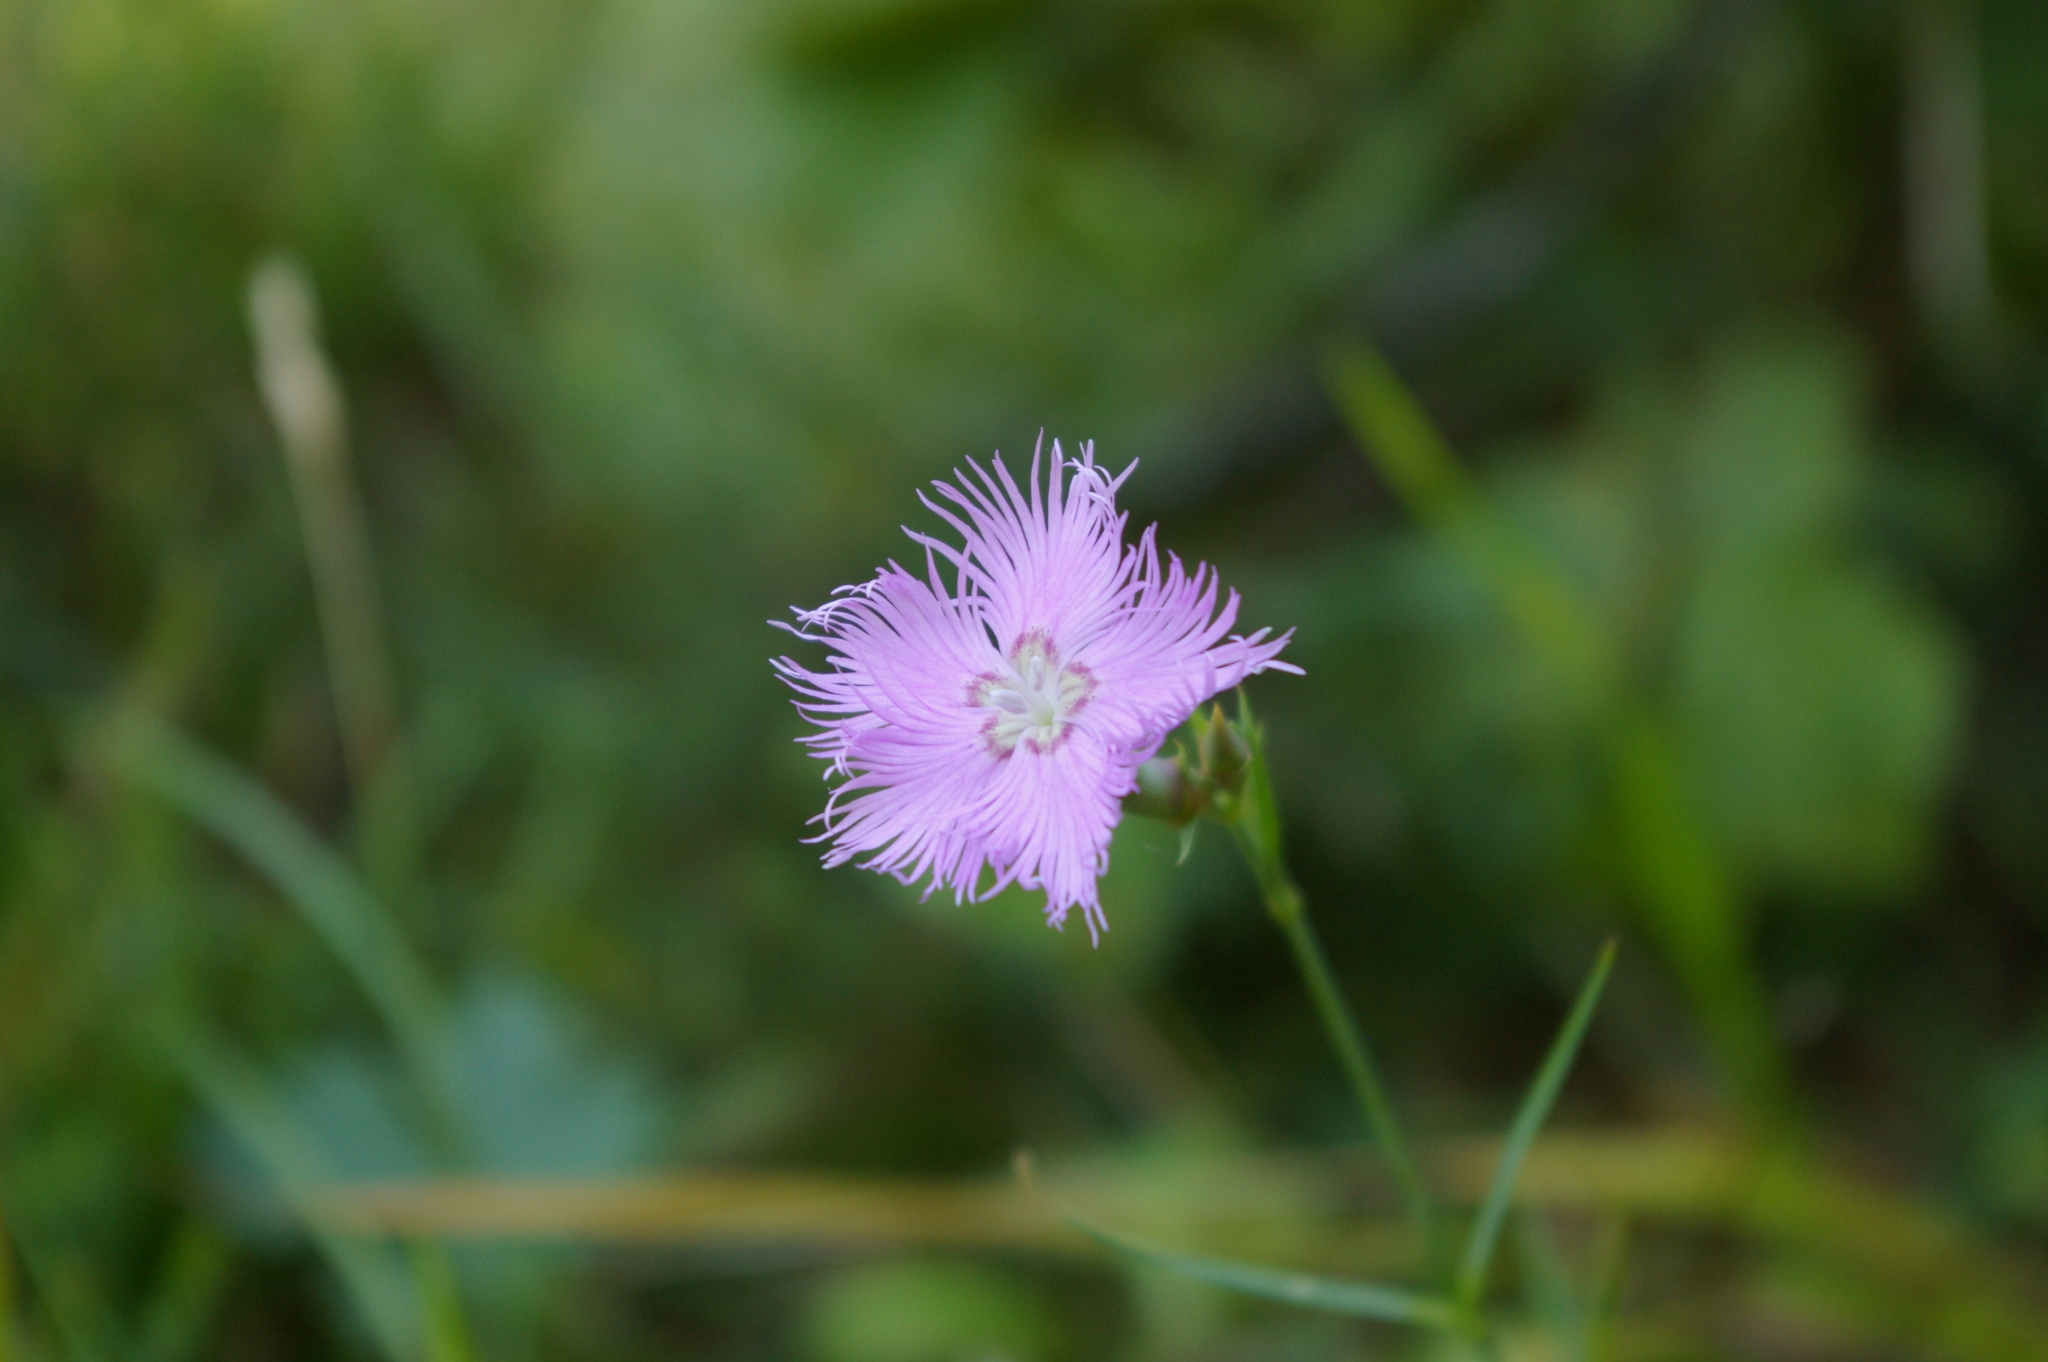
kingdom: Plantae
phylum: Tracheophyta
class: Magnoliopsida
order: Caryophyllales
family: Caryophyllaceae
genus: Dianthus
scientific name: Dianthus hyssopifolius
